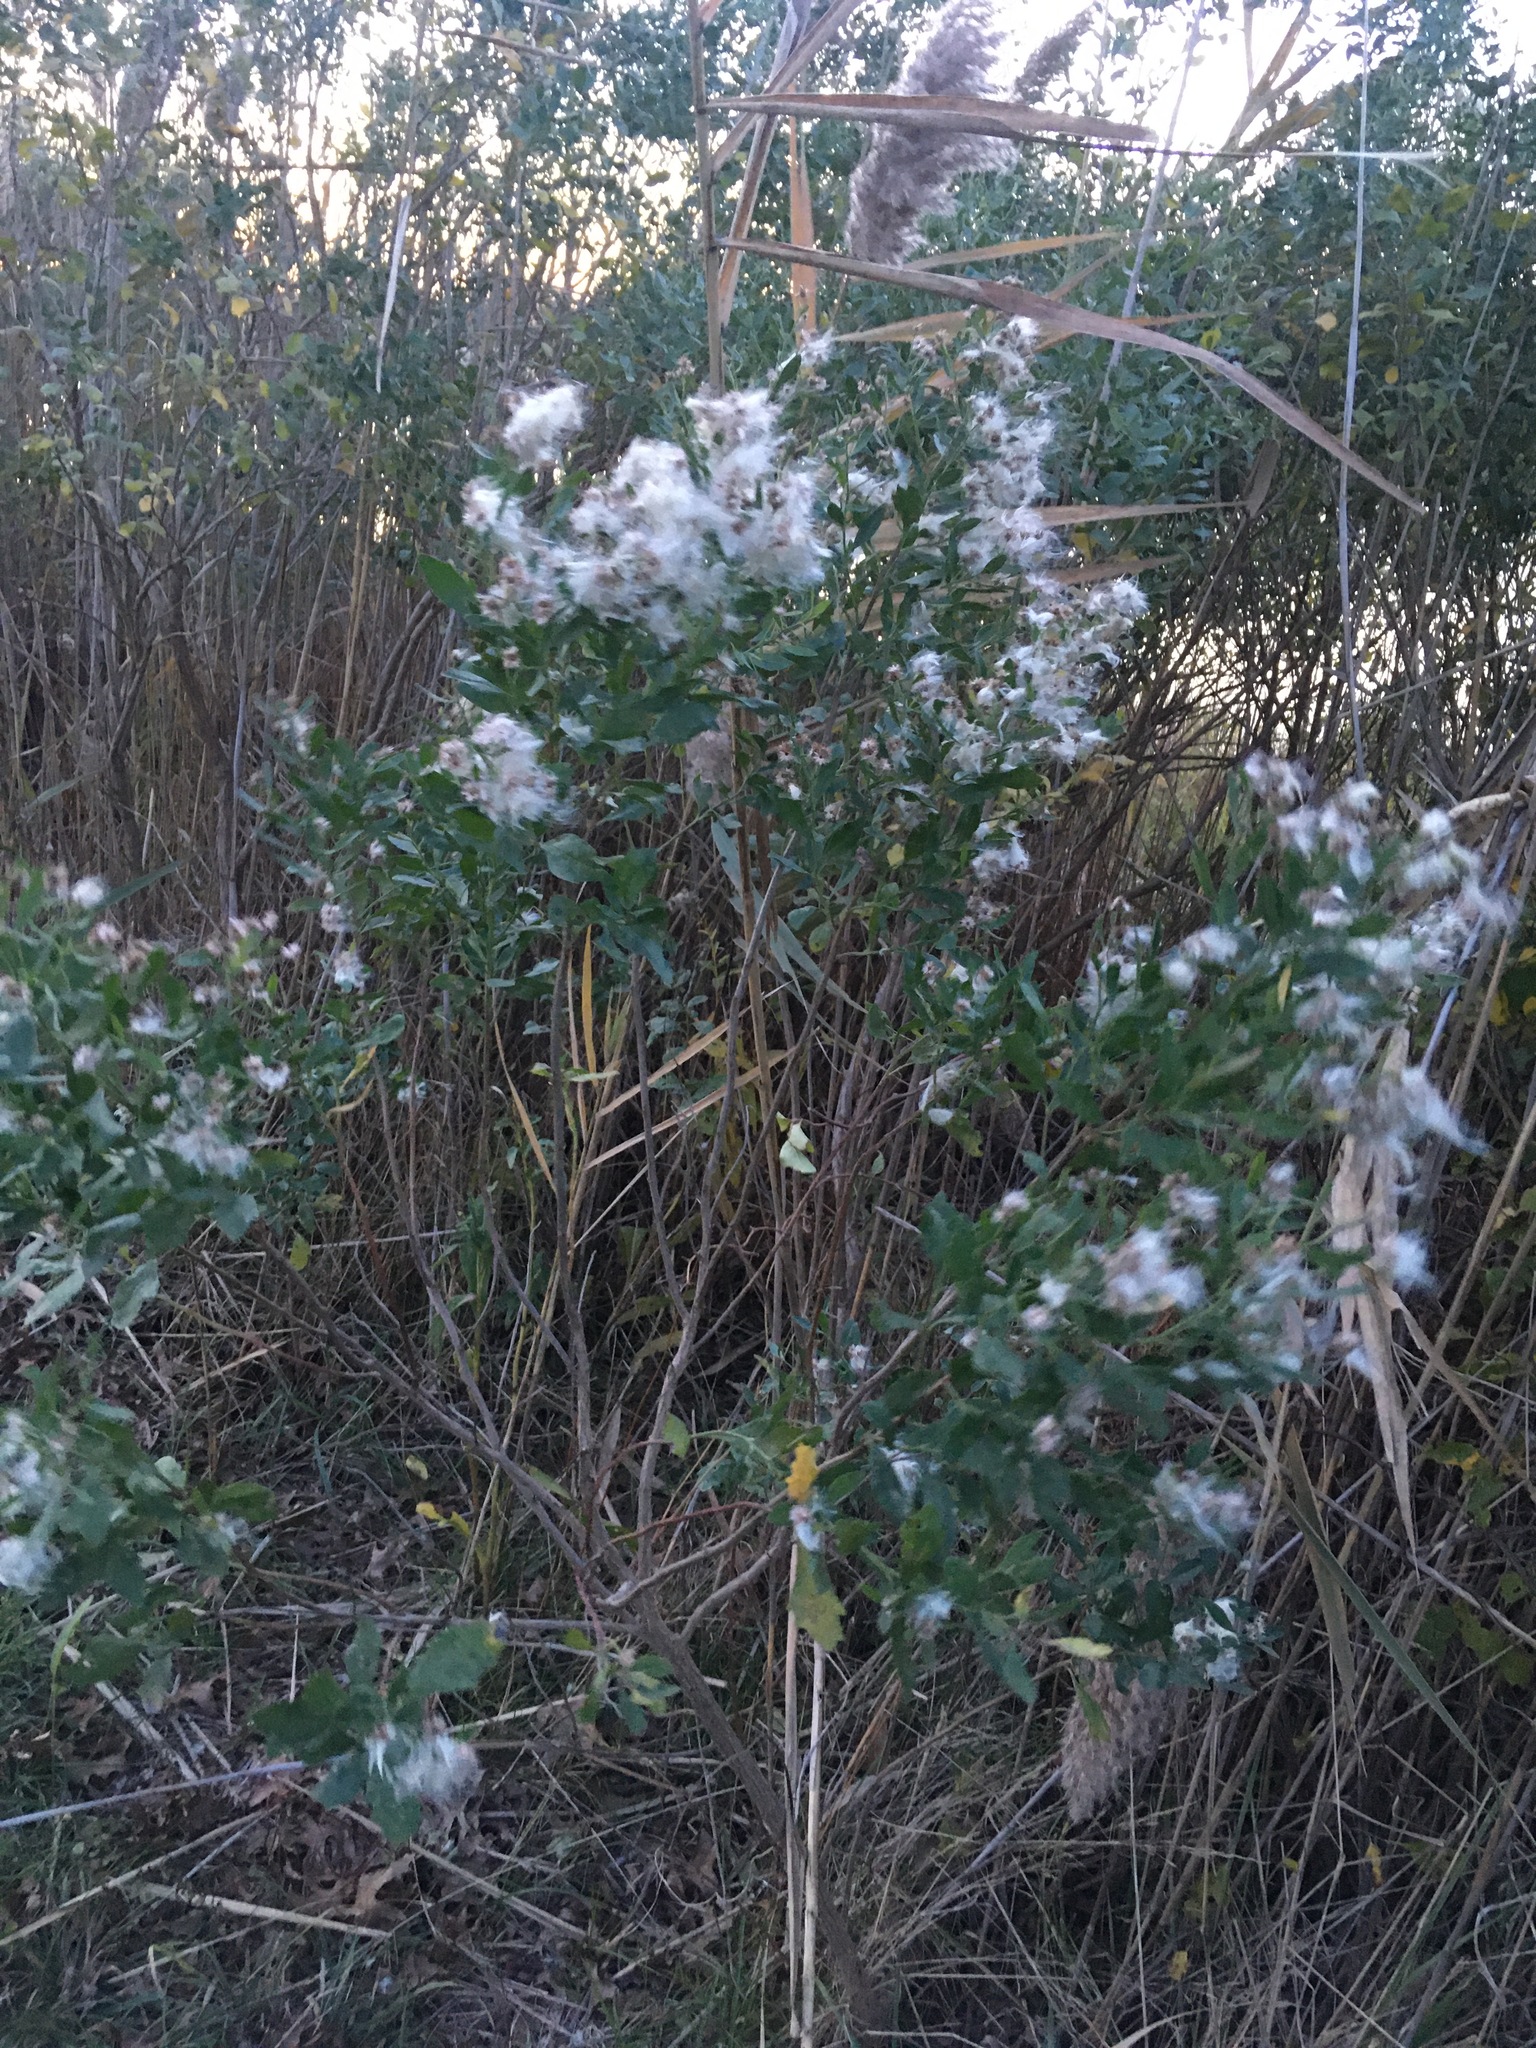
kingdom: Plantae
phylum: Tracheophyta
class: Magnoliopsida
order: Asterales
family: Asteraceae
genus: Baccharis
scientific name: Baccharis halimifolia
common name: Eastern baccharis
